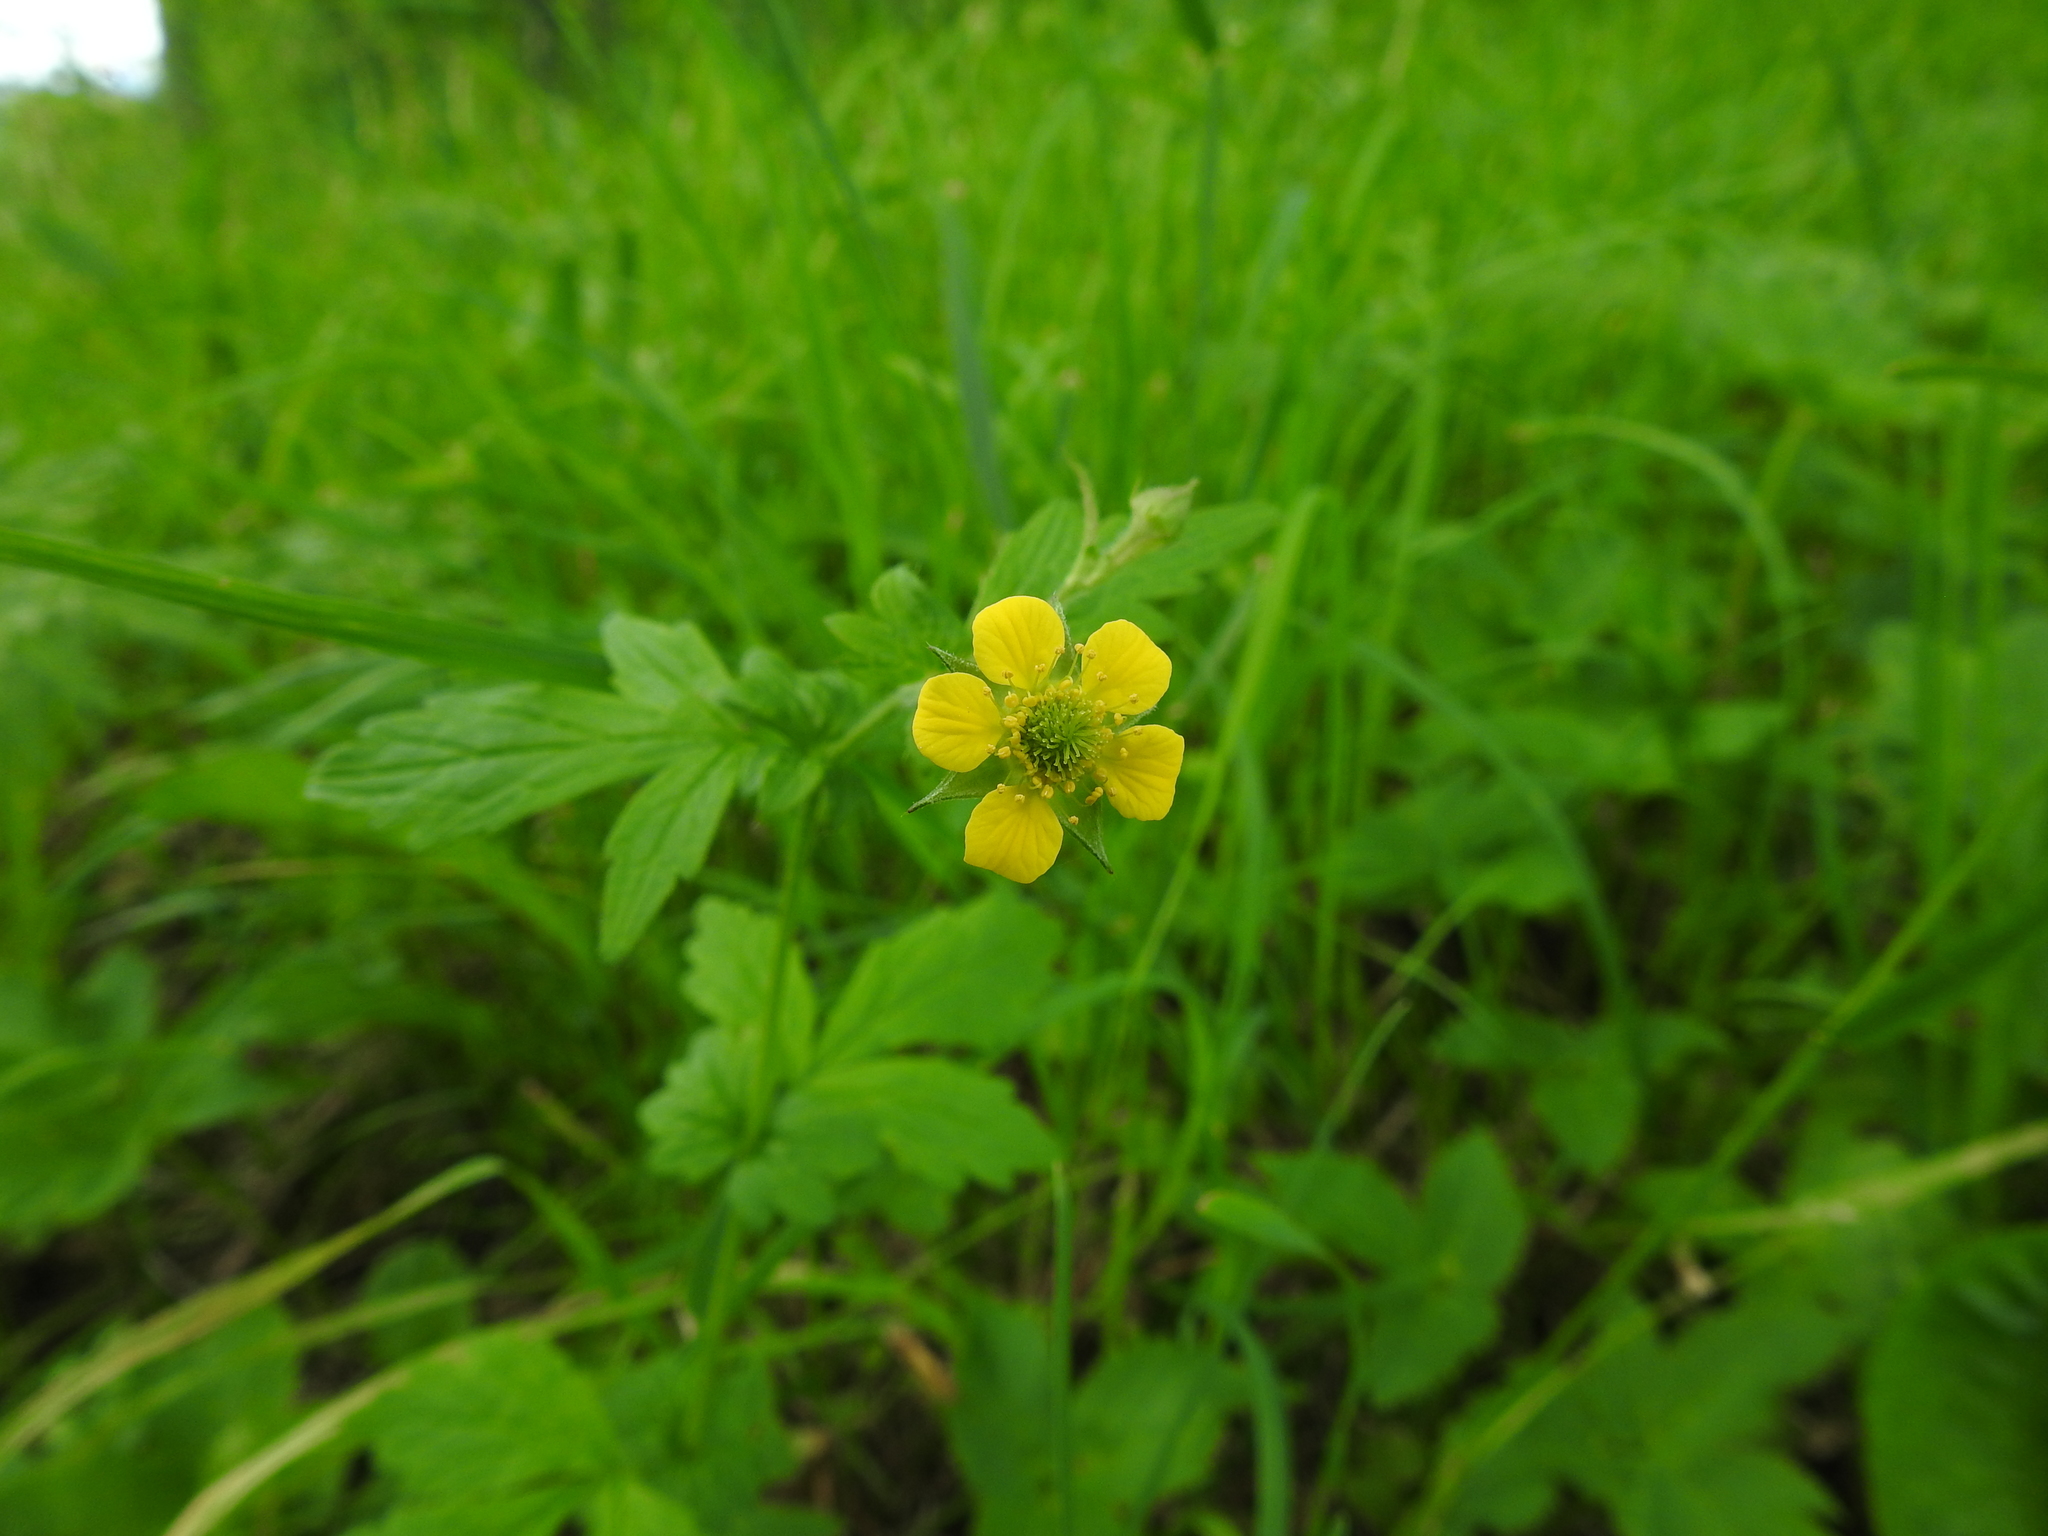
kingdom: Plantae
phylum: Tracheophyta
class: Magnoliopsida
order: Rosales
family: Rosaceae
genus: Geum
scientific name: Geum urbanum
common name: Wood avens
